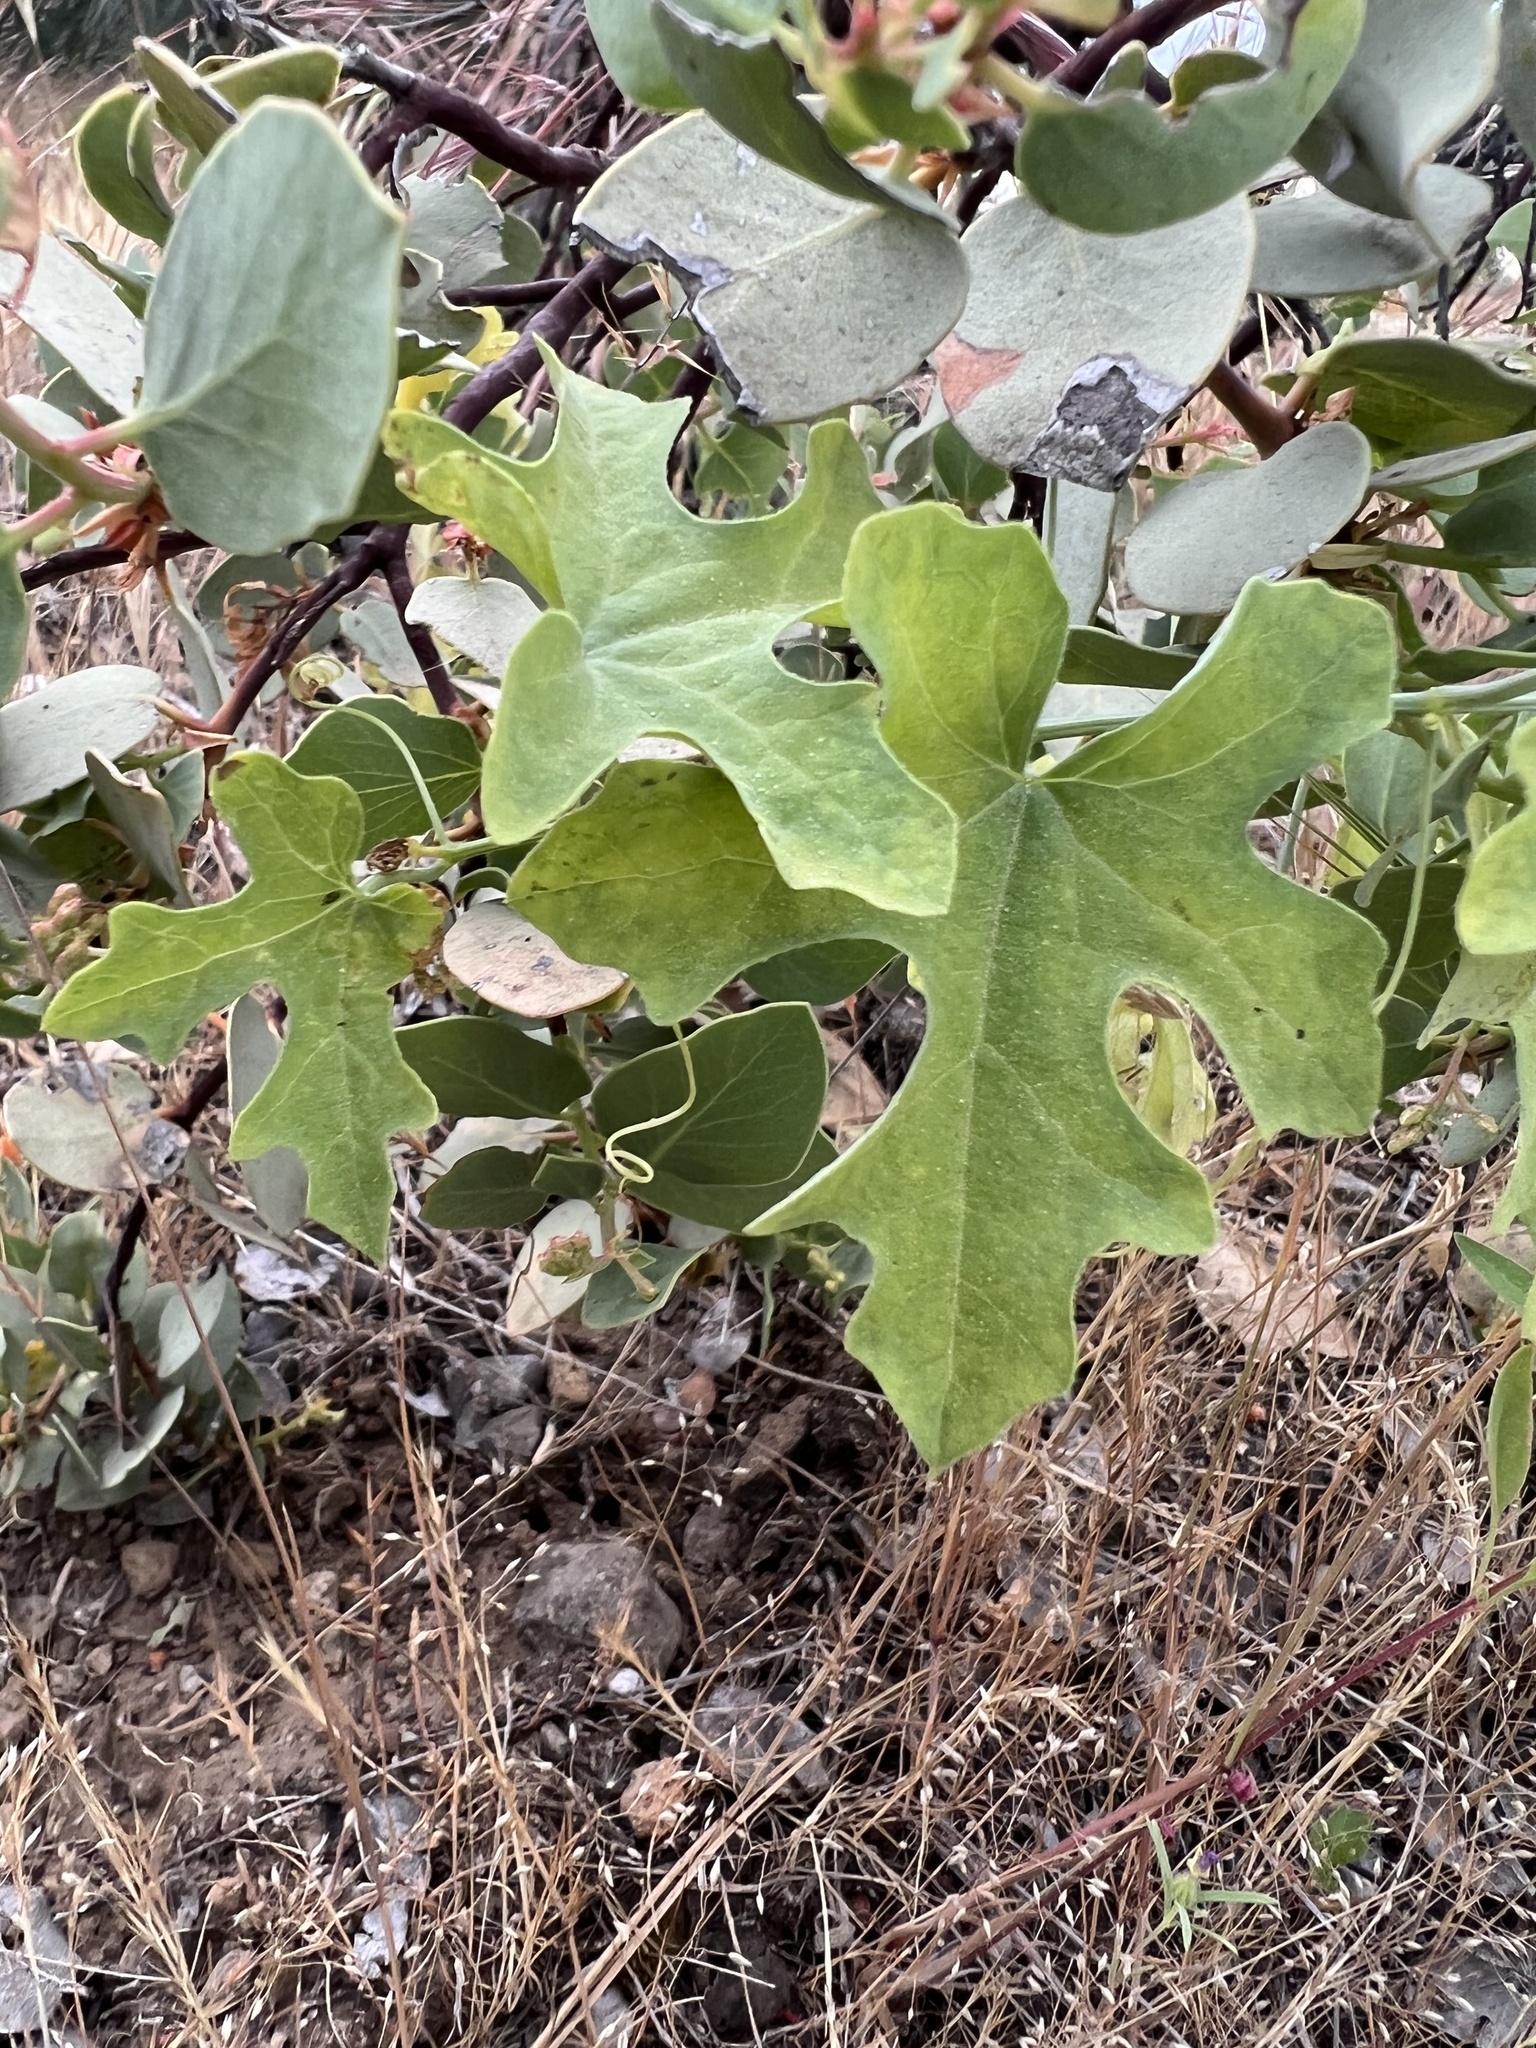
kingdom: Plantae
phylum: Tracheophyta
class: Magnoliopsida
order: Cucurbitales
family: Cucurbitaceae
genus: Marah
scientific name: Marah watsonii
